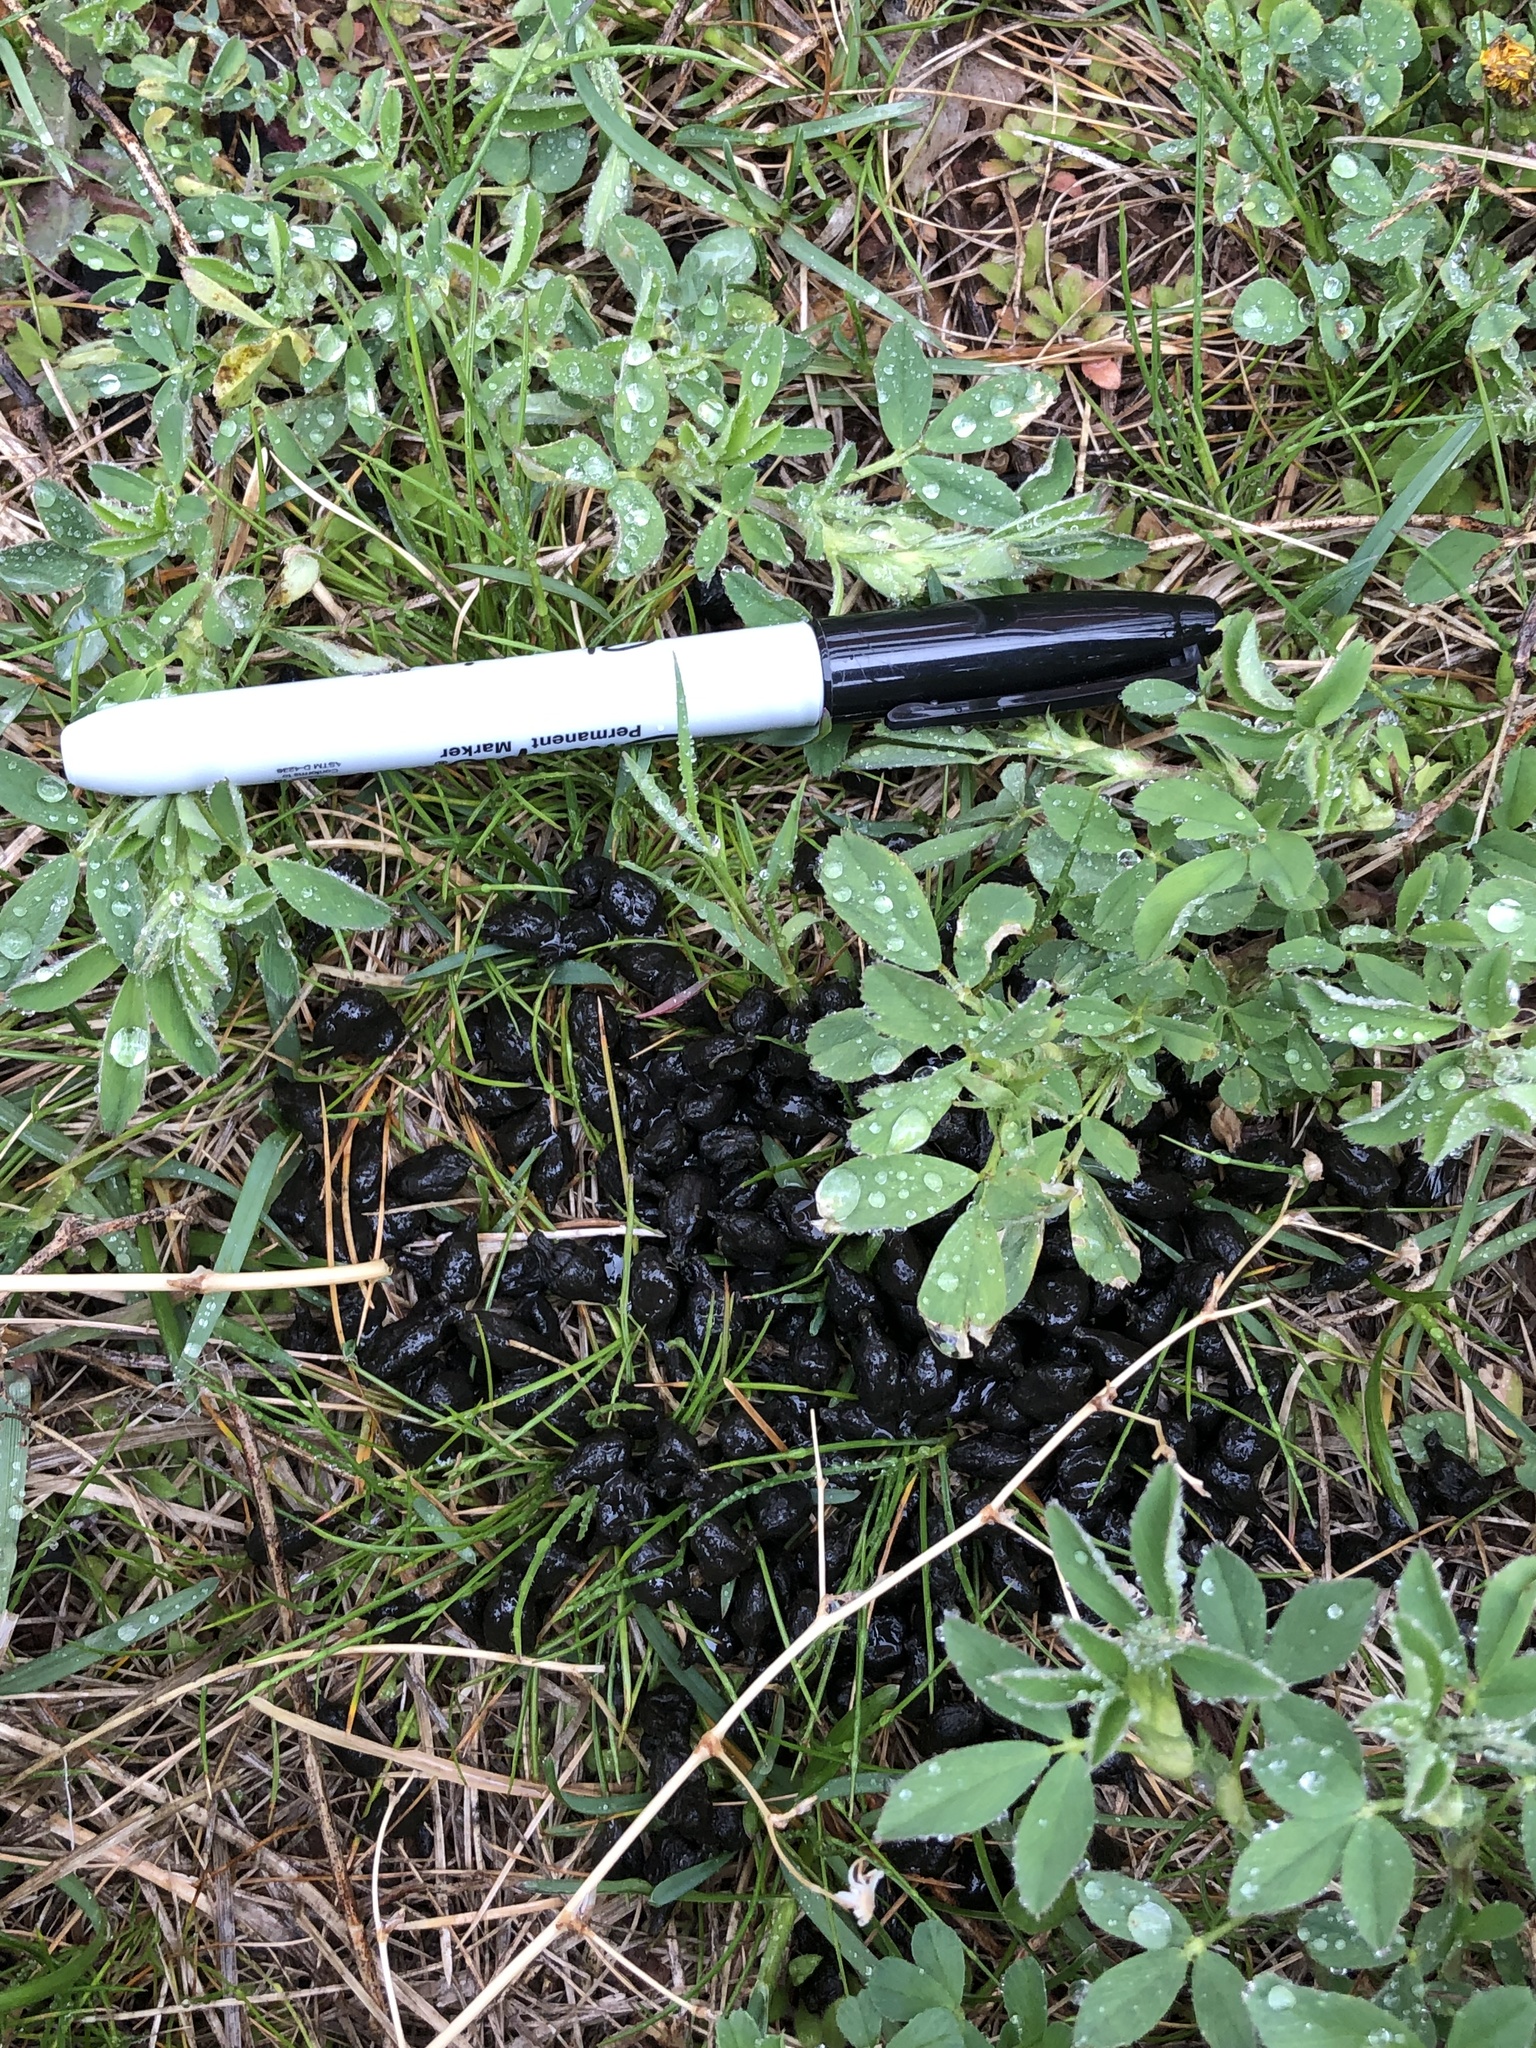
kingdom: Animalia
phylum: Chordata
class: Mammalia
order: Artiodactyla
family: Cervidae
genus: Odocoileus
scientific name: Odocoileus hemionus
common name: Mule deer
